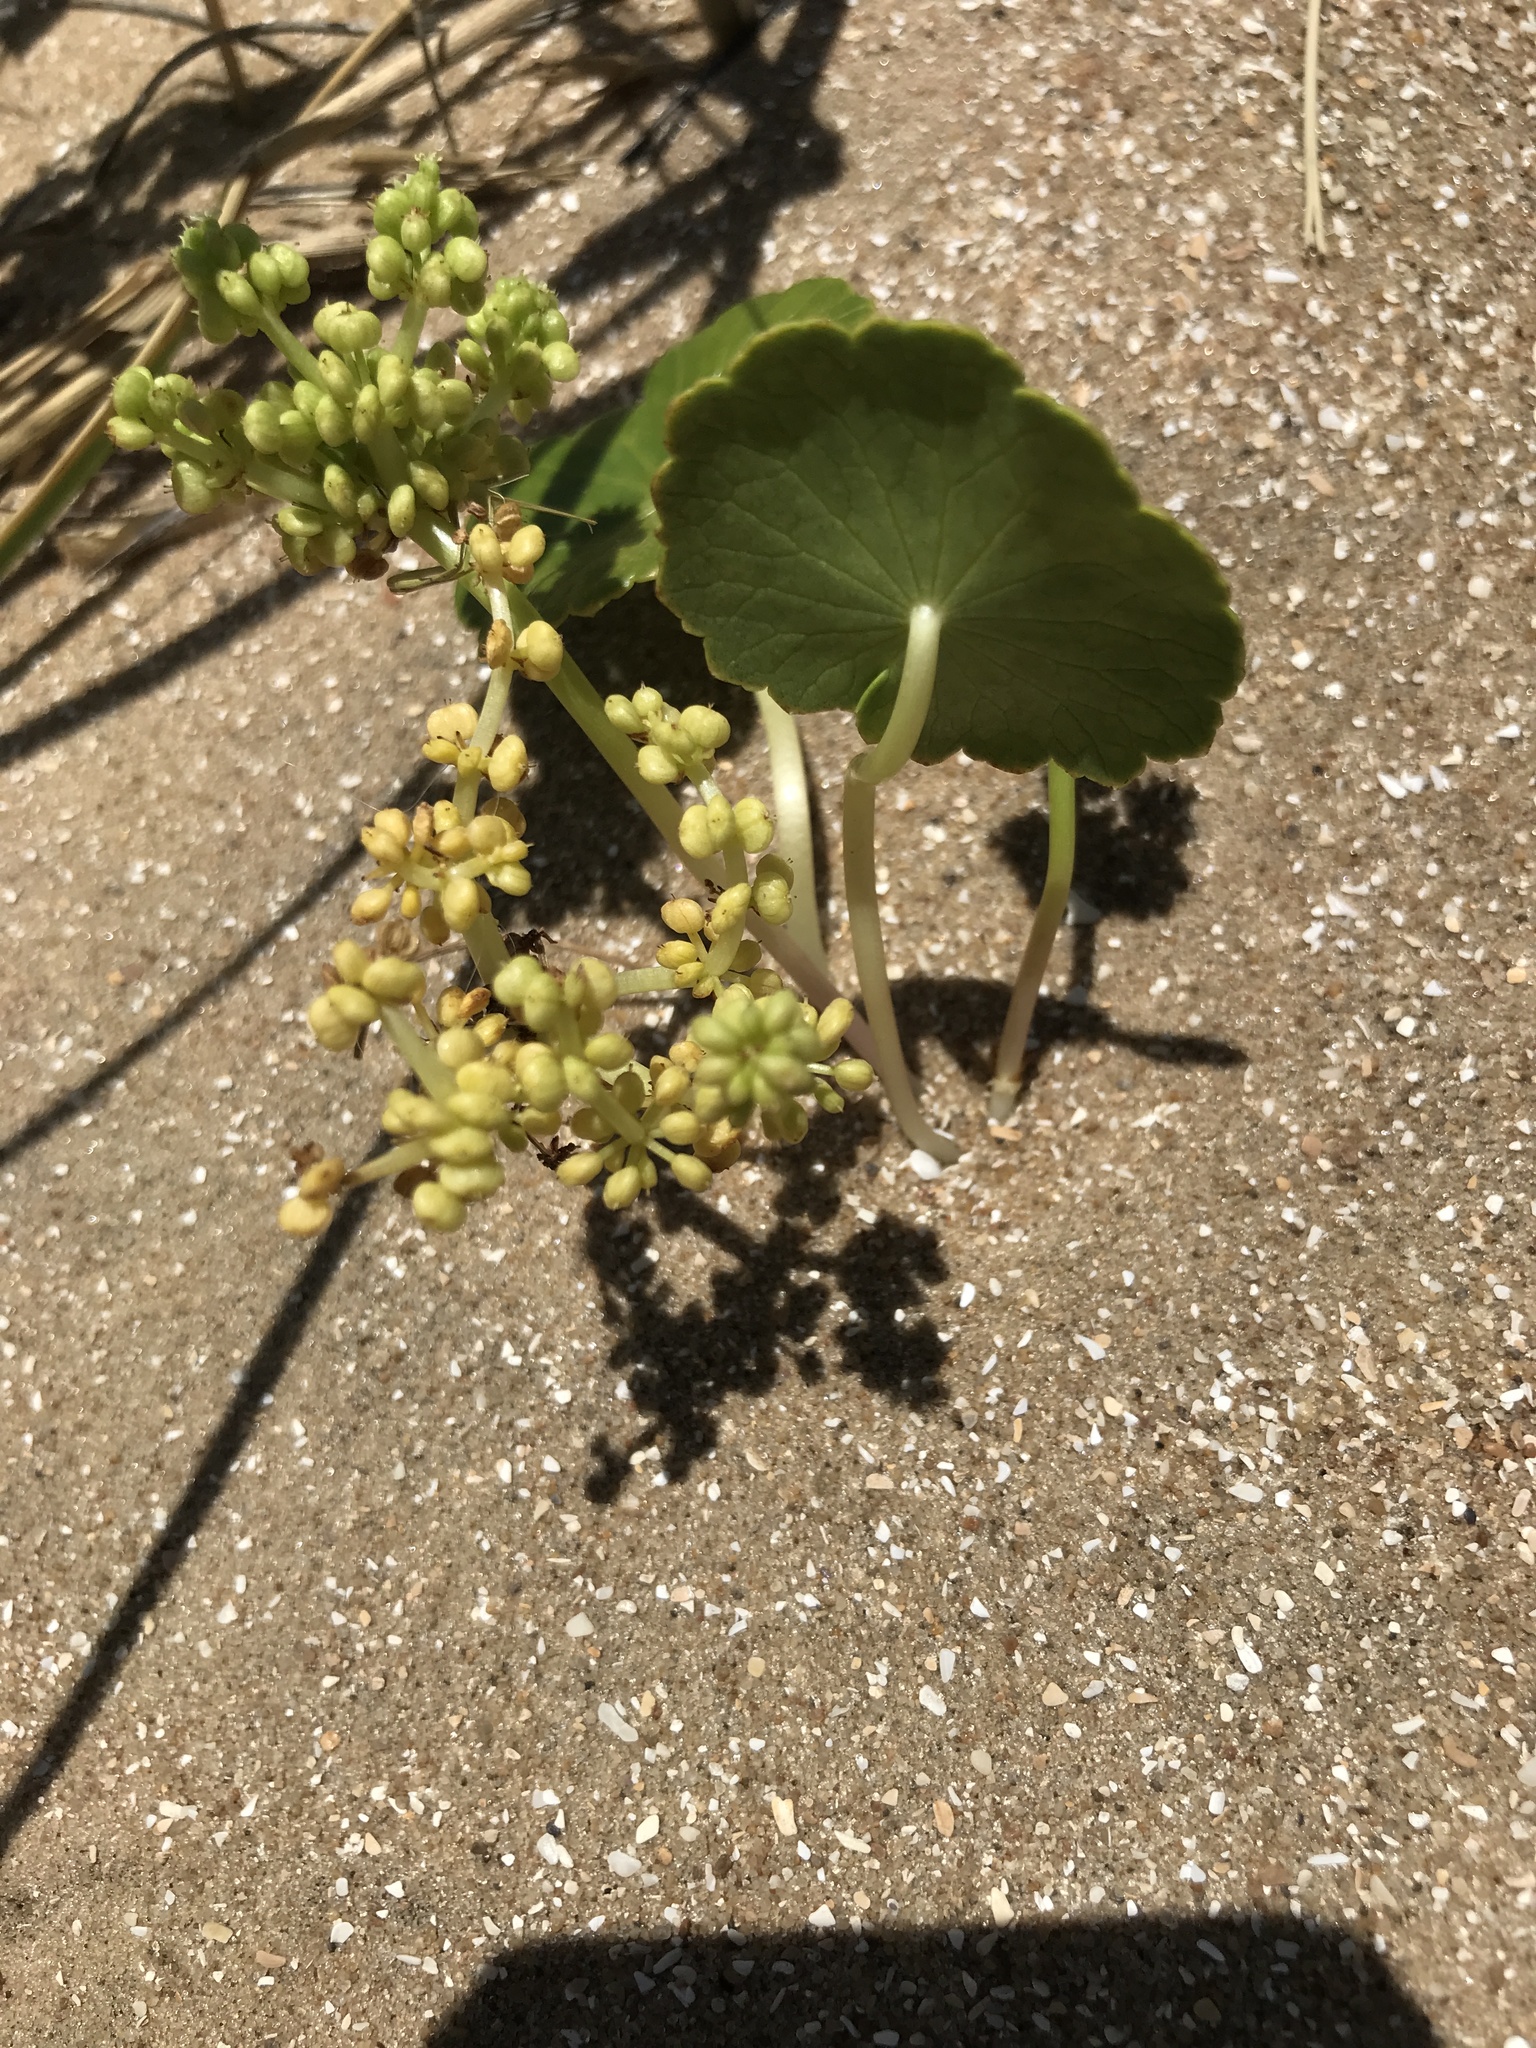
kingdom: Plantae
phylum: Tracheophyta
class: Magnoliopsida
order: Apiales
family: Araliaceae
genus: Hydrocotyle
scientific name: Hydrocotyle bonariensis
